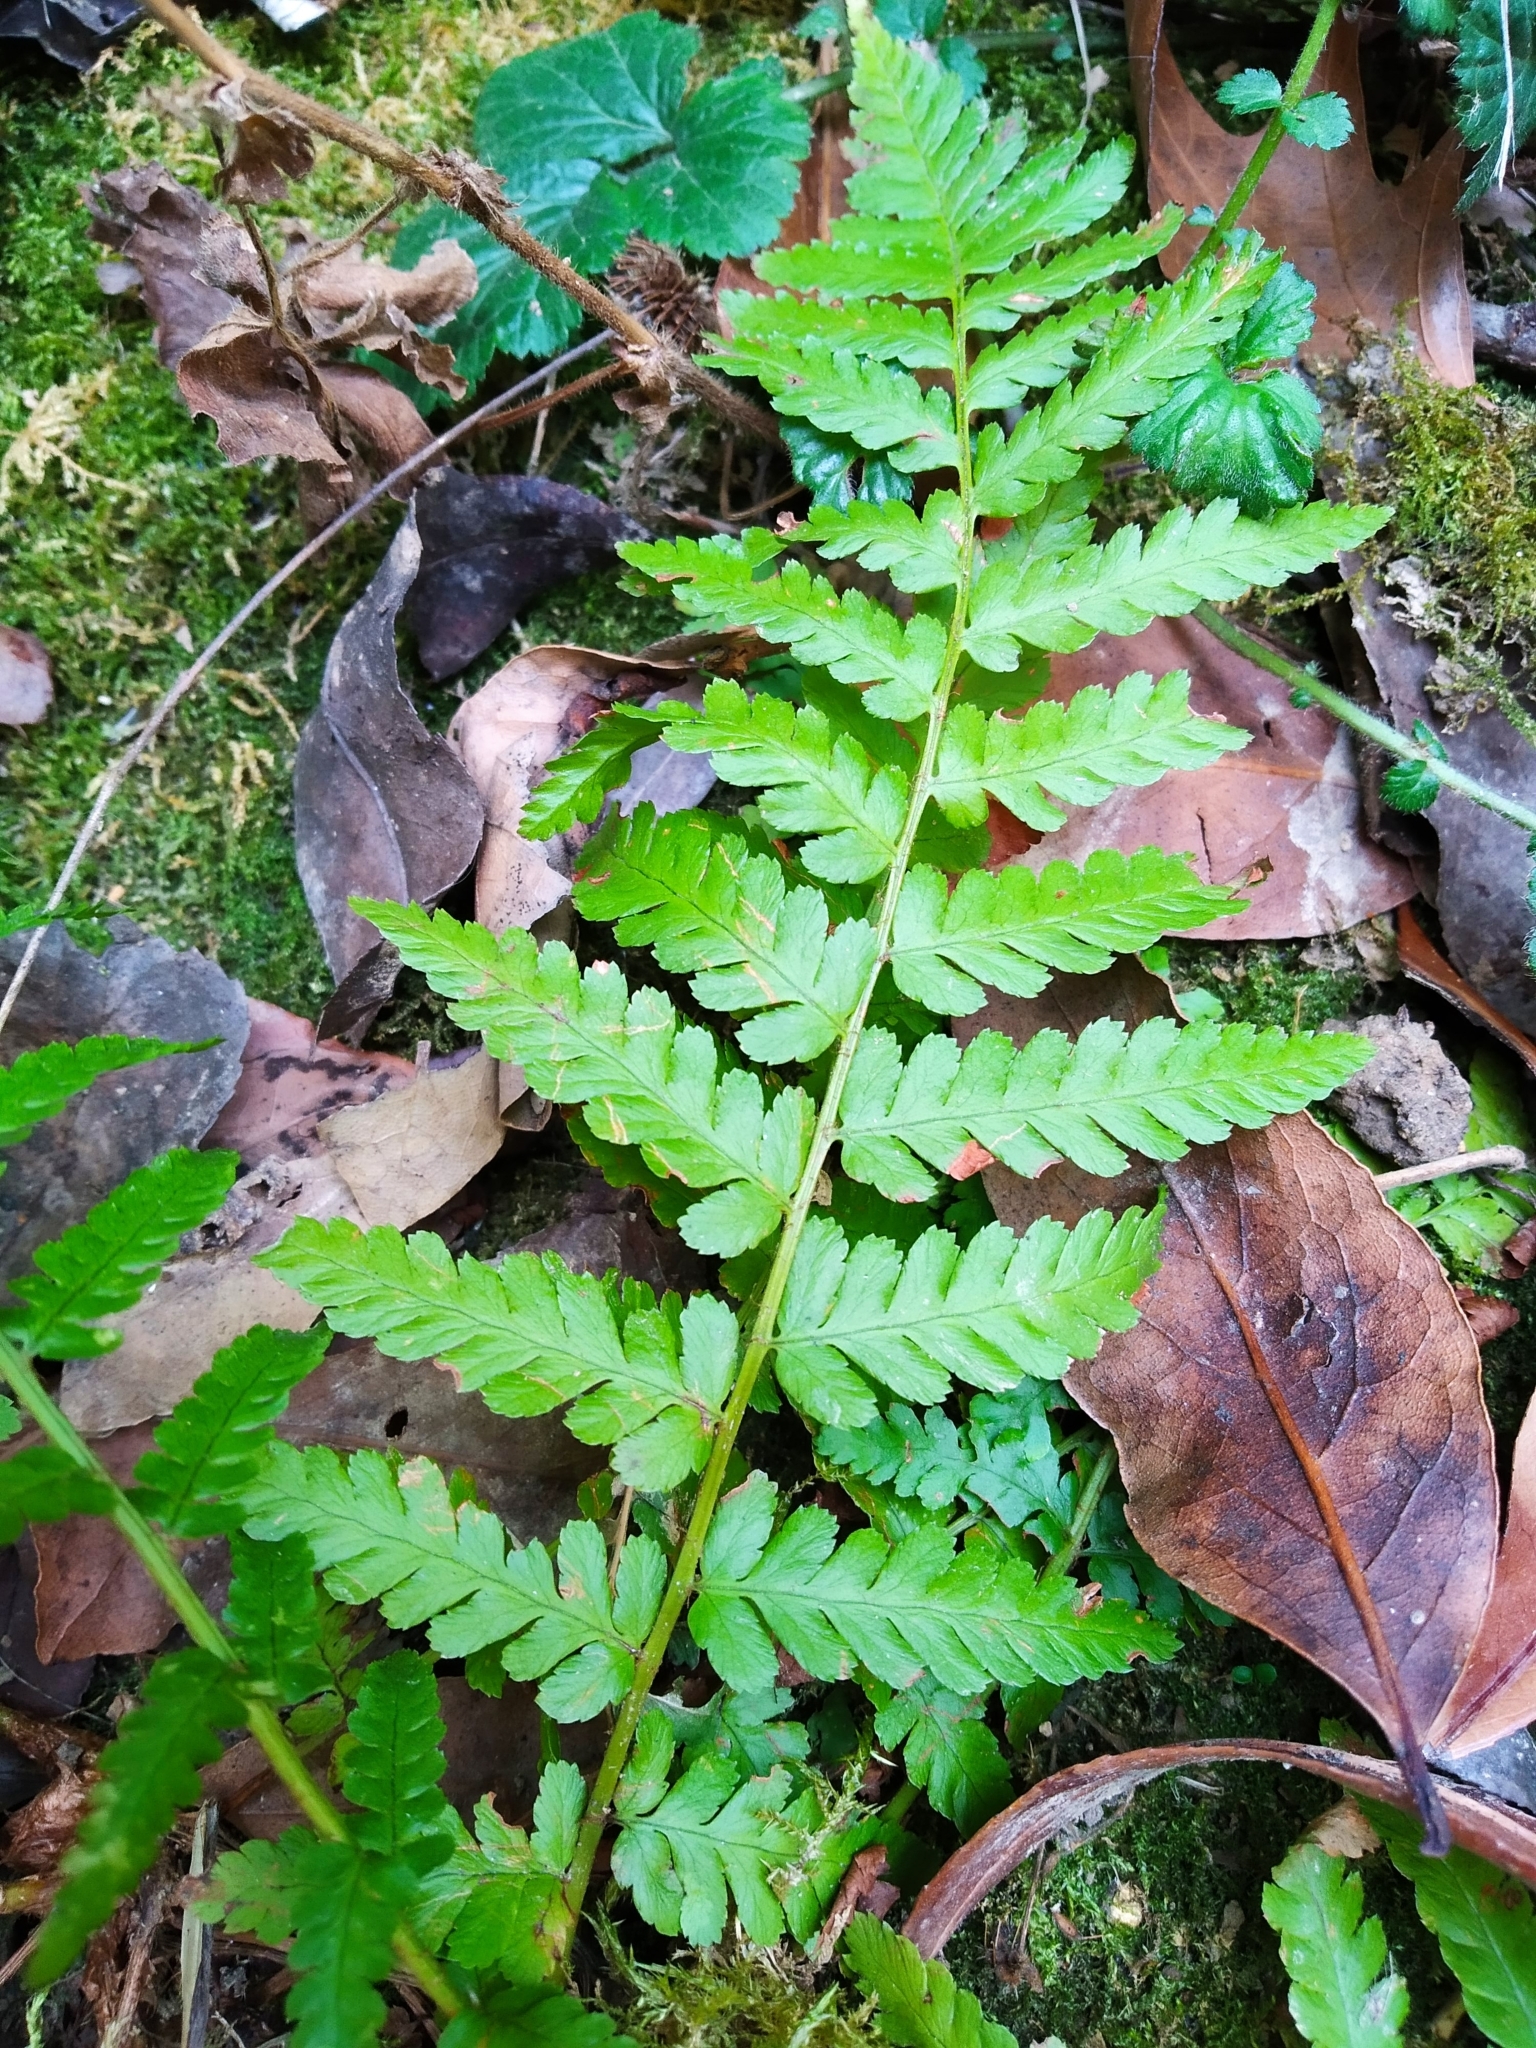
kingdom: Plantae
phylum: Tracheophyta
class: Polypodiopsida
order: Polypodiales
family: Dryopteridaceae
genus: Dryopteris
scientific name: Dryopteris filix-mas
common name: Male fern
